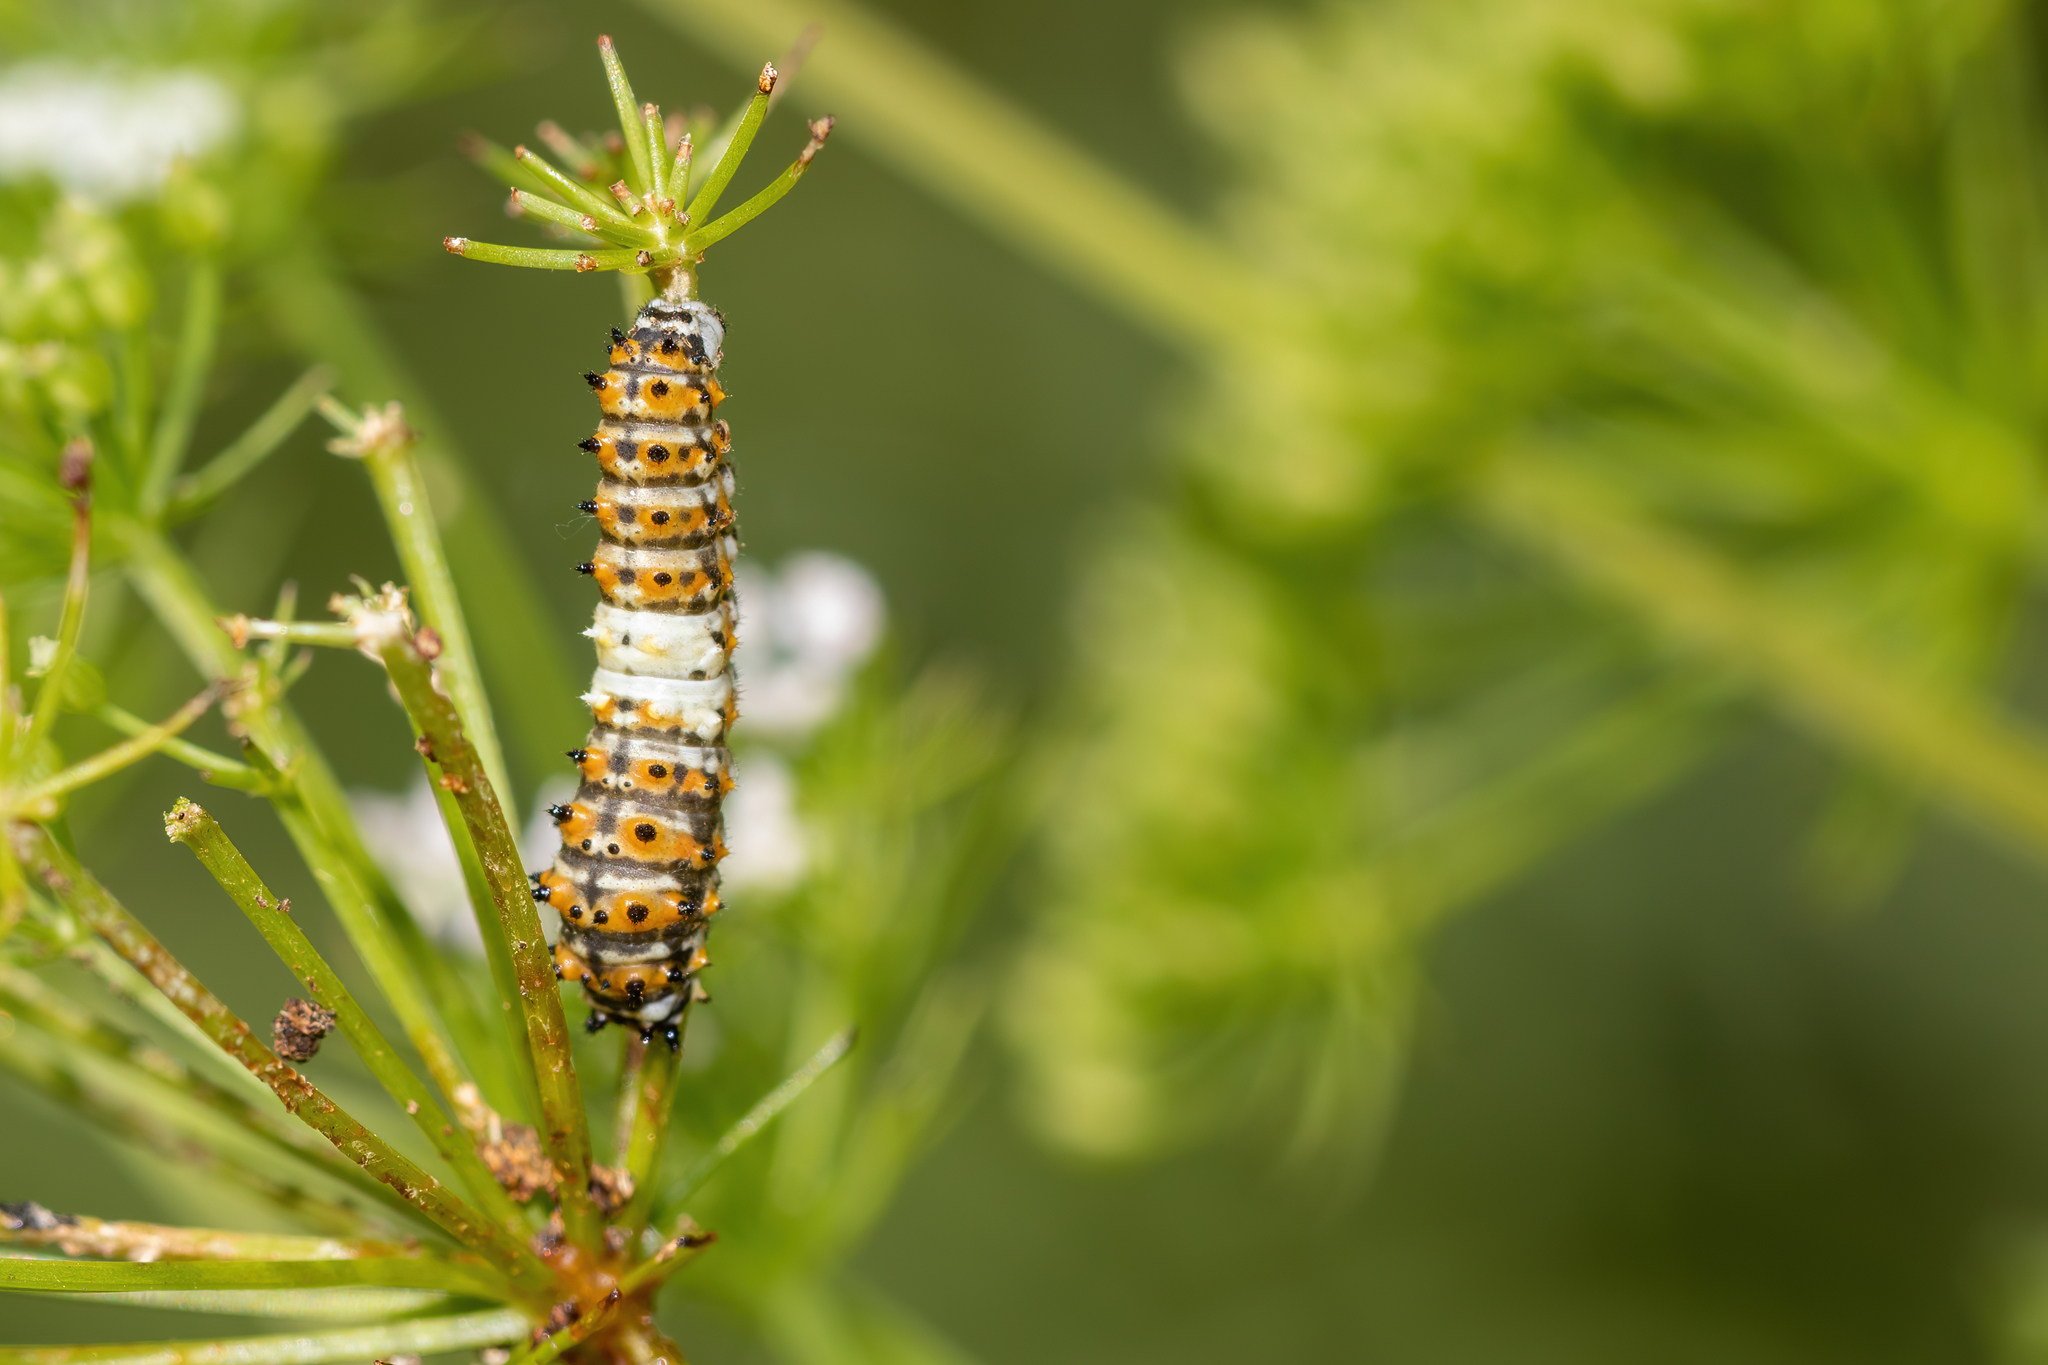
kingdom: Animalia
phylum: Arthropoda
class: Insecta
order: Lepidoptera
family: Papilionidae
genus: Papilio
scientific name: Papilio polyxenes
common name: Black swallowtail
